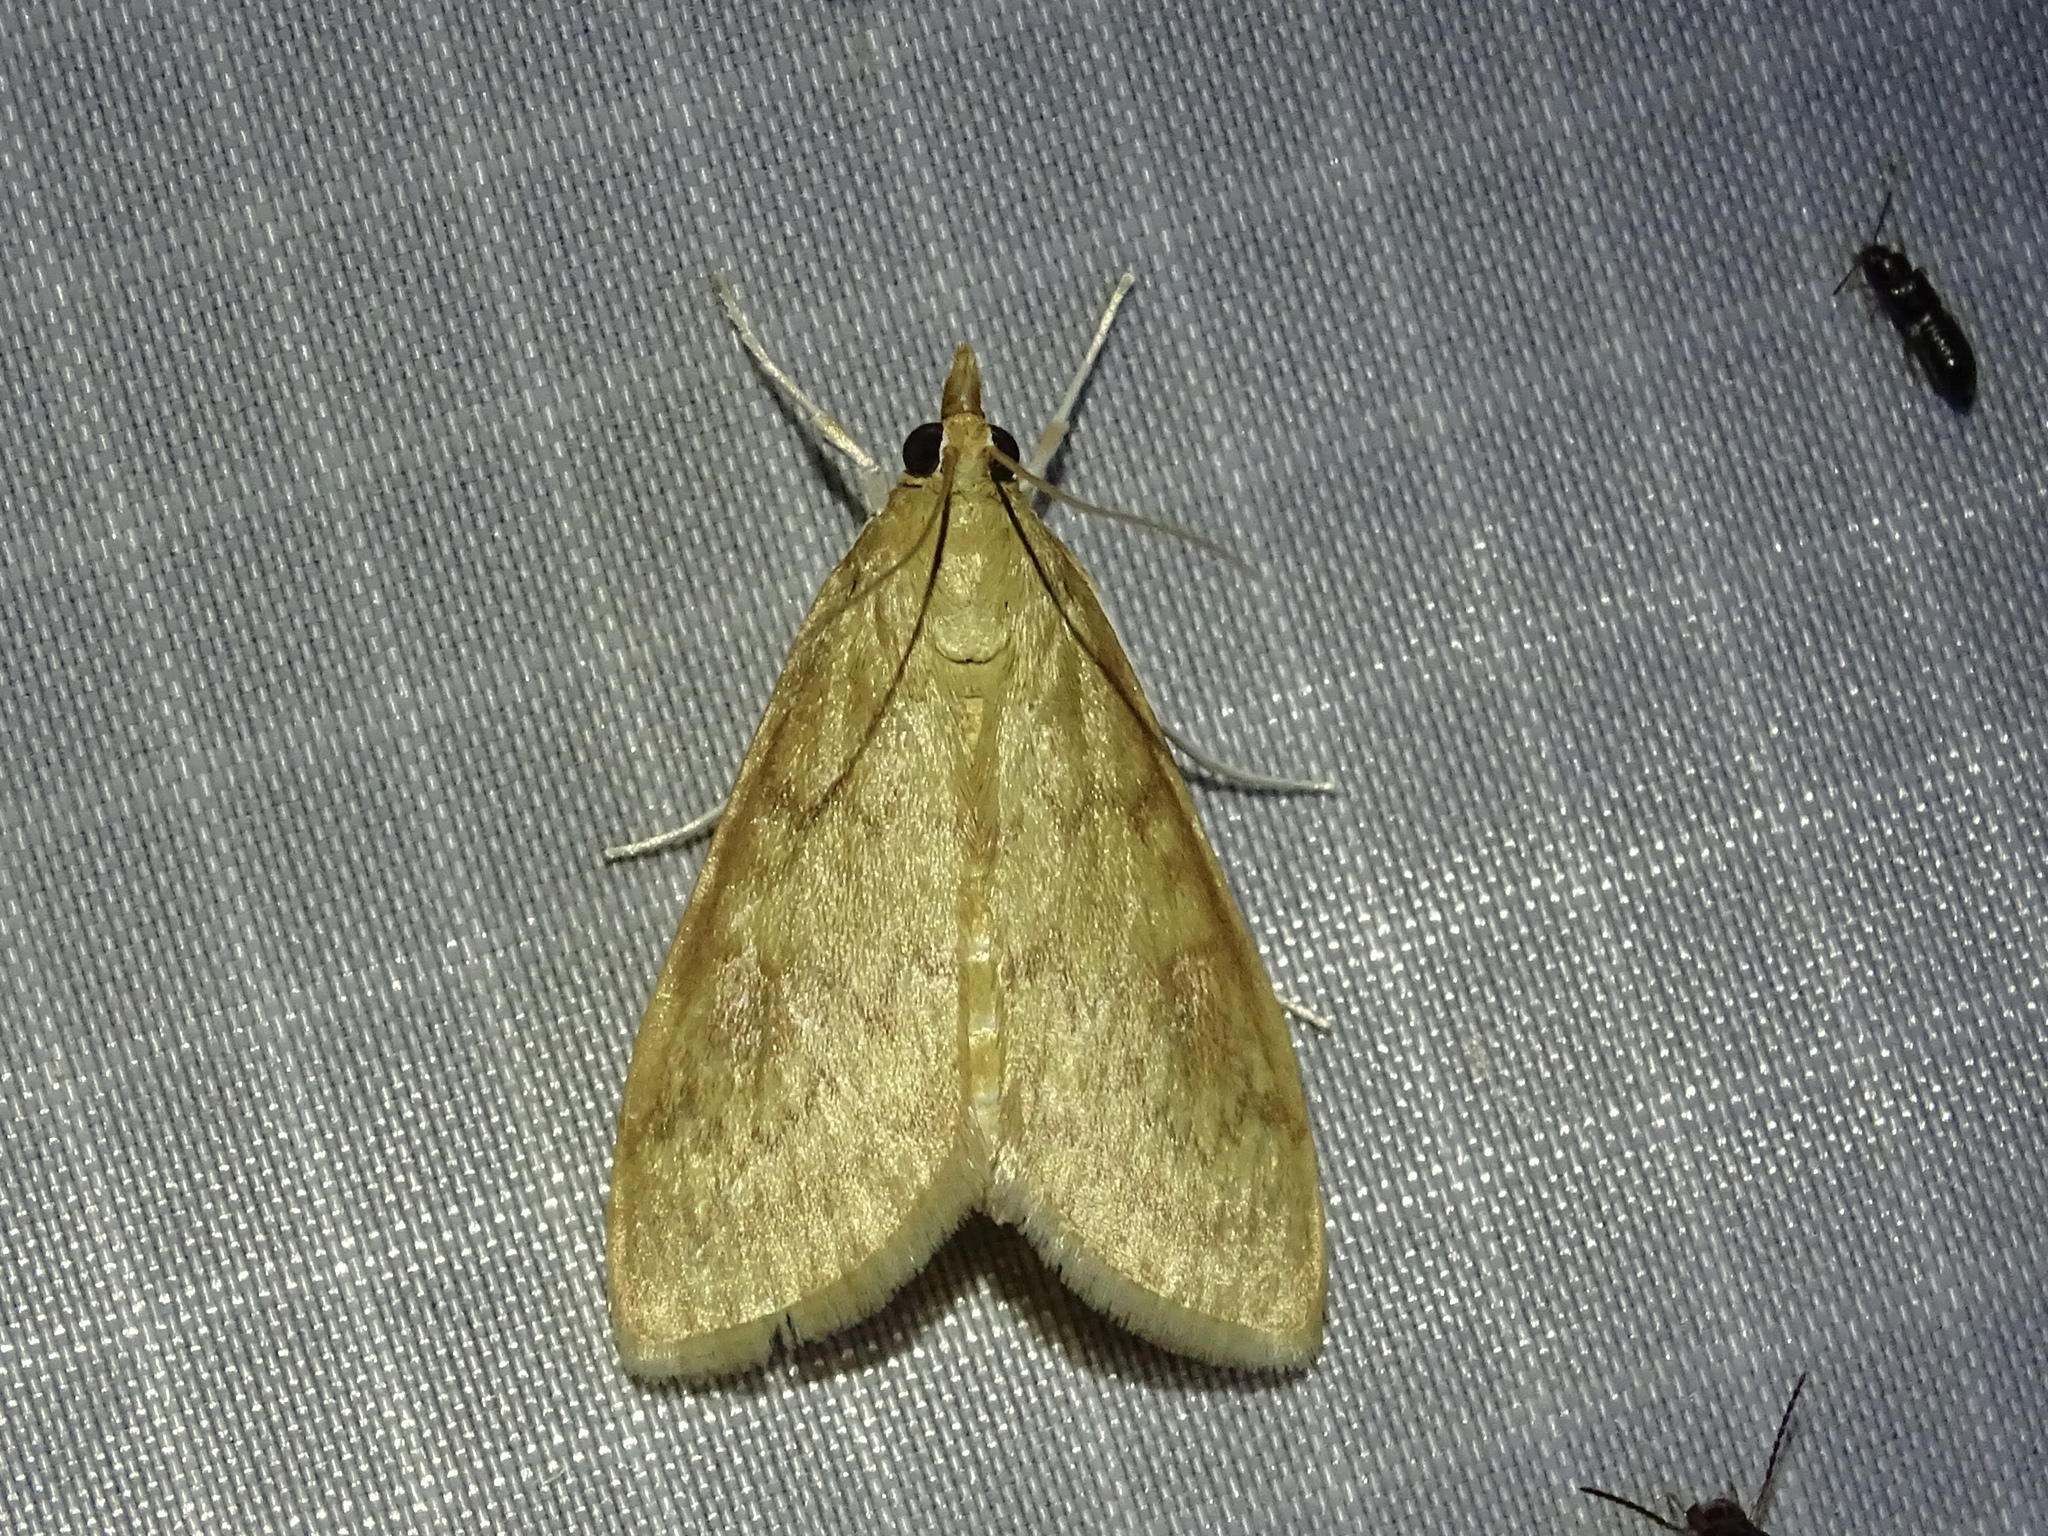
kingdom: Animalia
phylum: Arthropoda
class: Insecta
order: Lepidoptera
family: Crambidae
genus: Ostrinia
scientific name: Ostrinia penitalis
